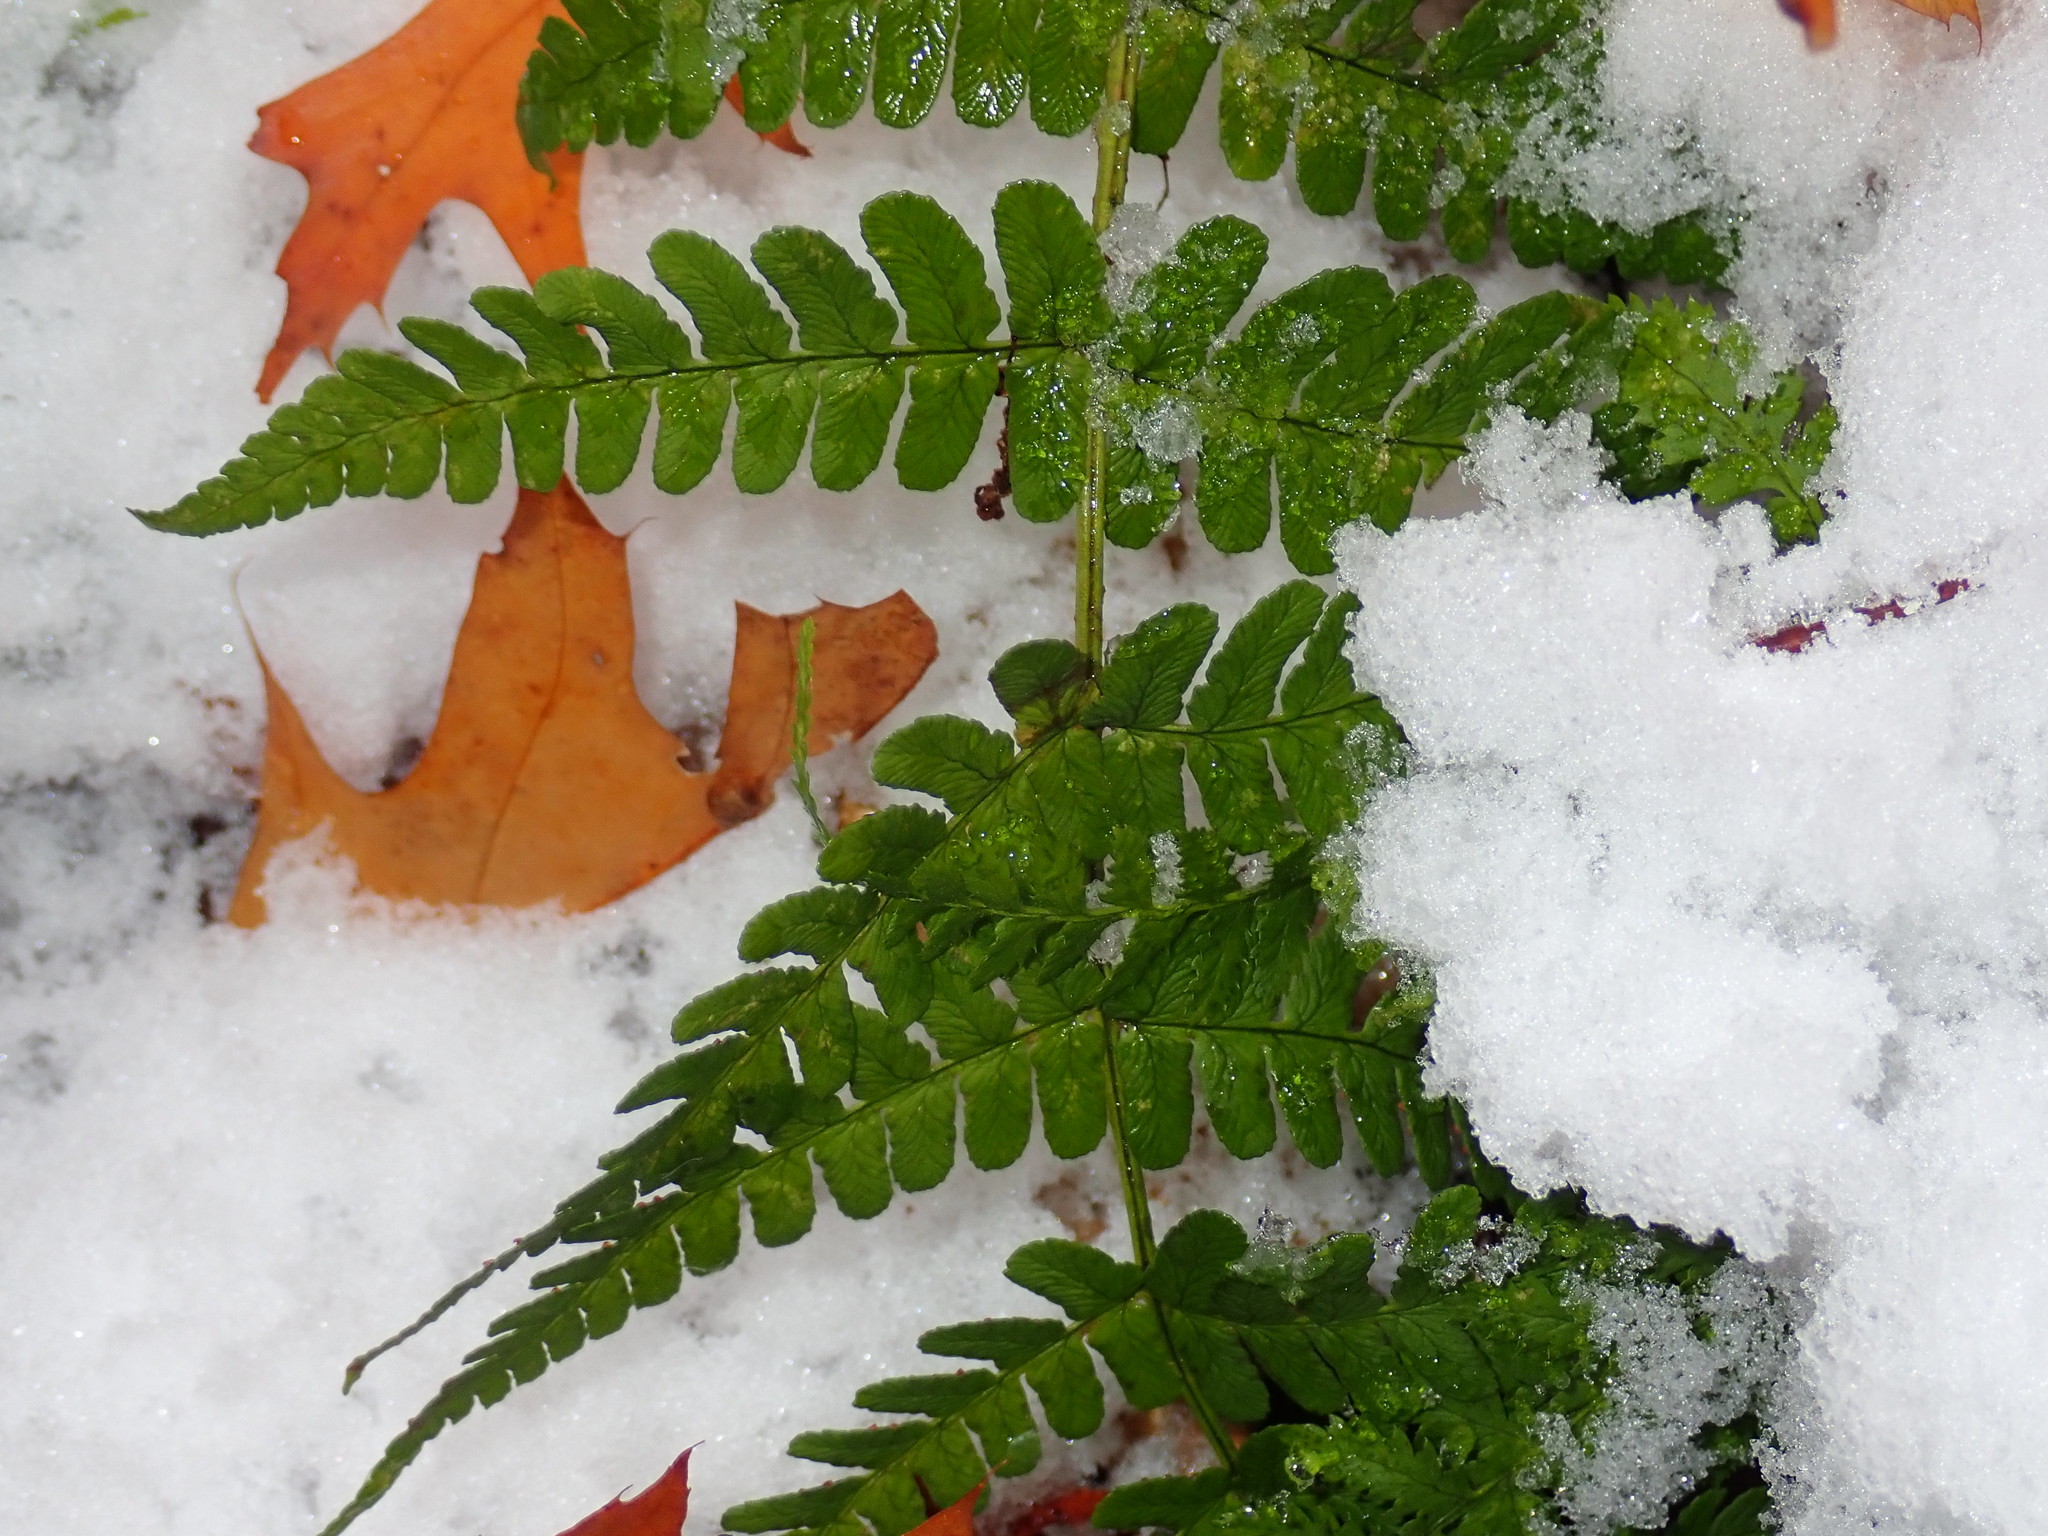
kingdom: Plantae
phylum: Tracheophyta
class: Polypodiopsida
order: Polypodiales
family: Dryopteridaceae
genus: Dryopteris
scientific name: Dryopteris marginalis
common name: Marginal wood fern
